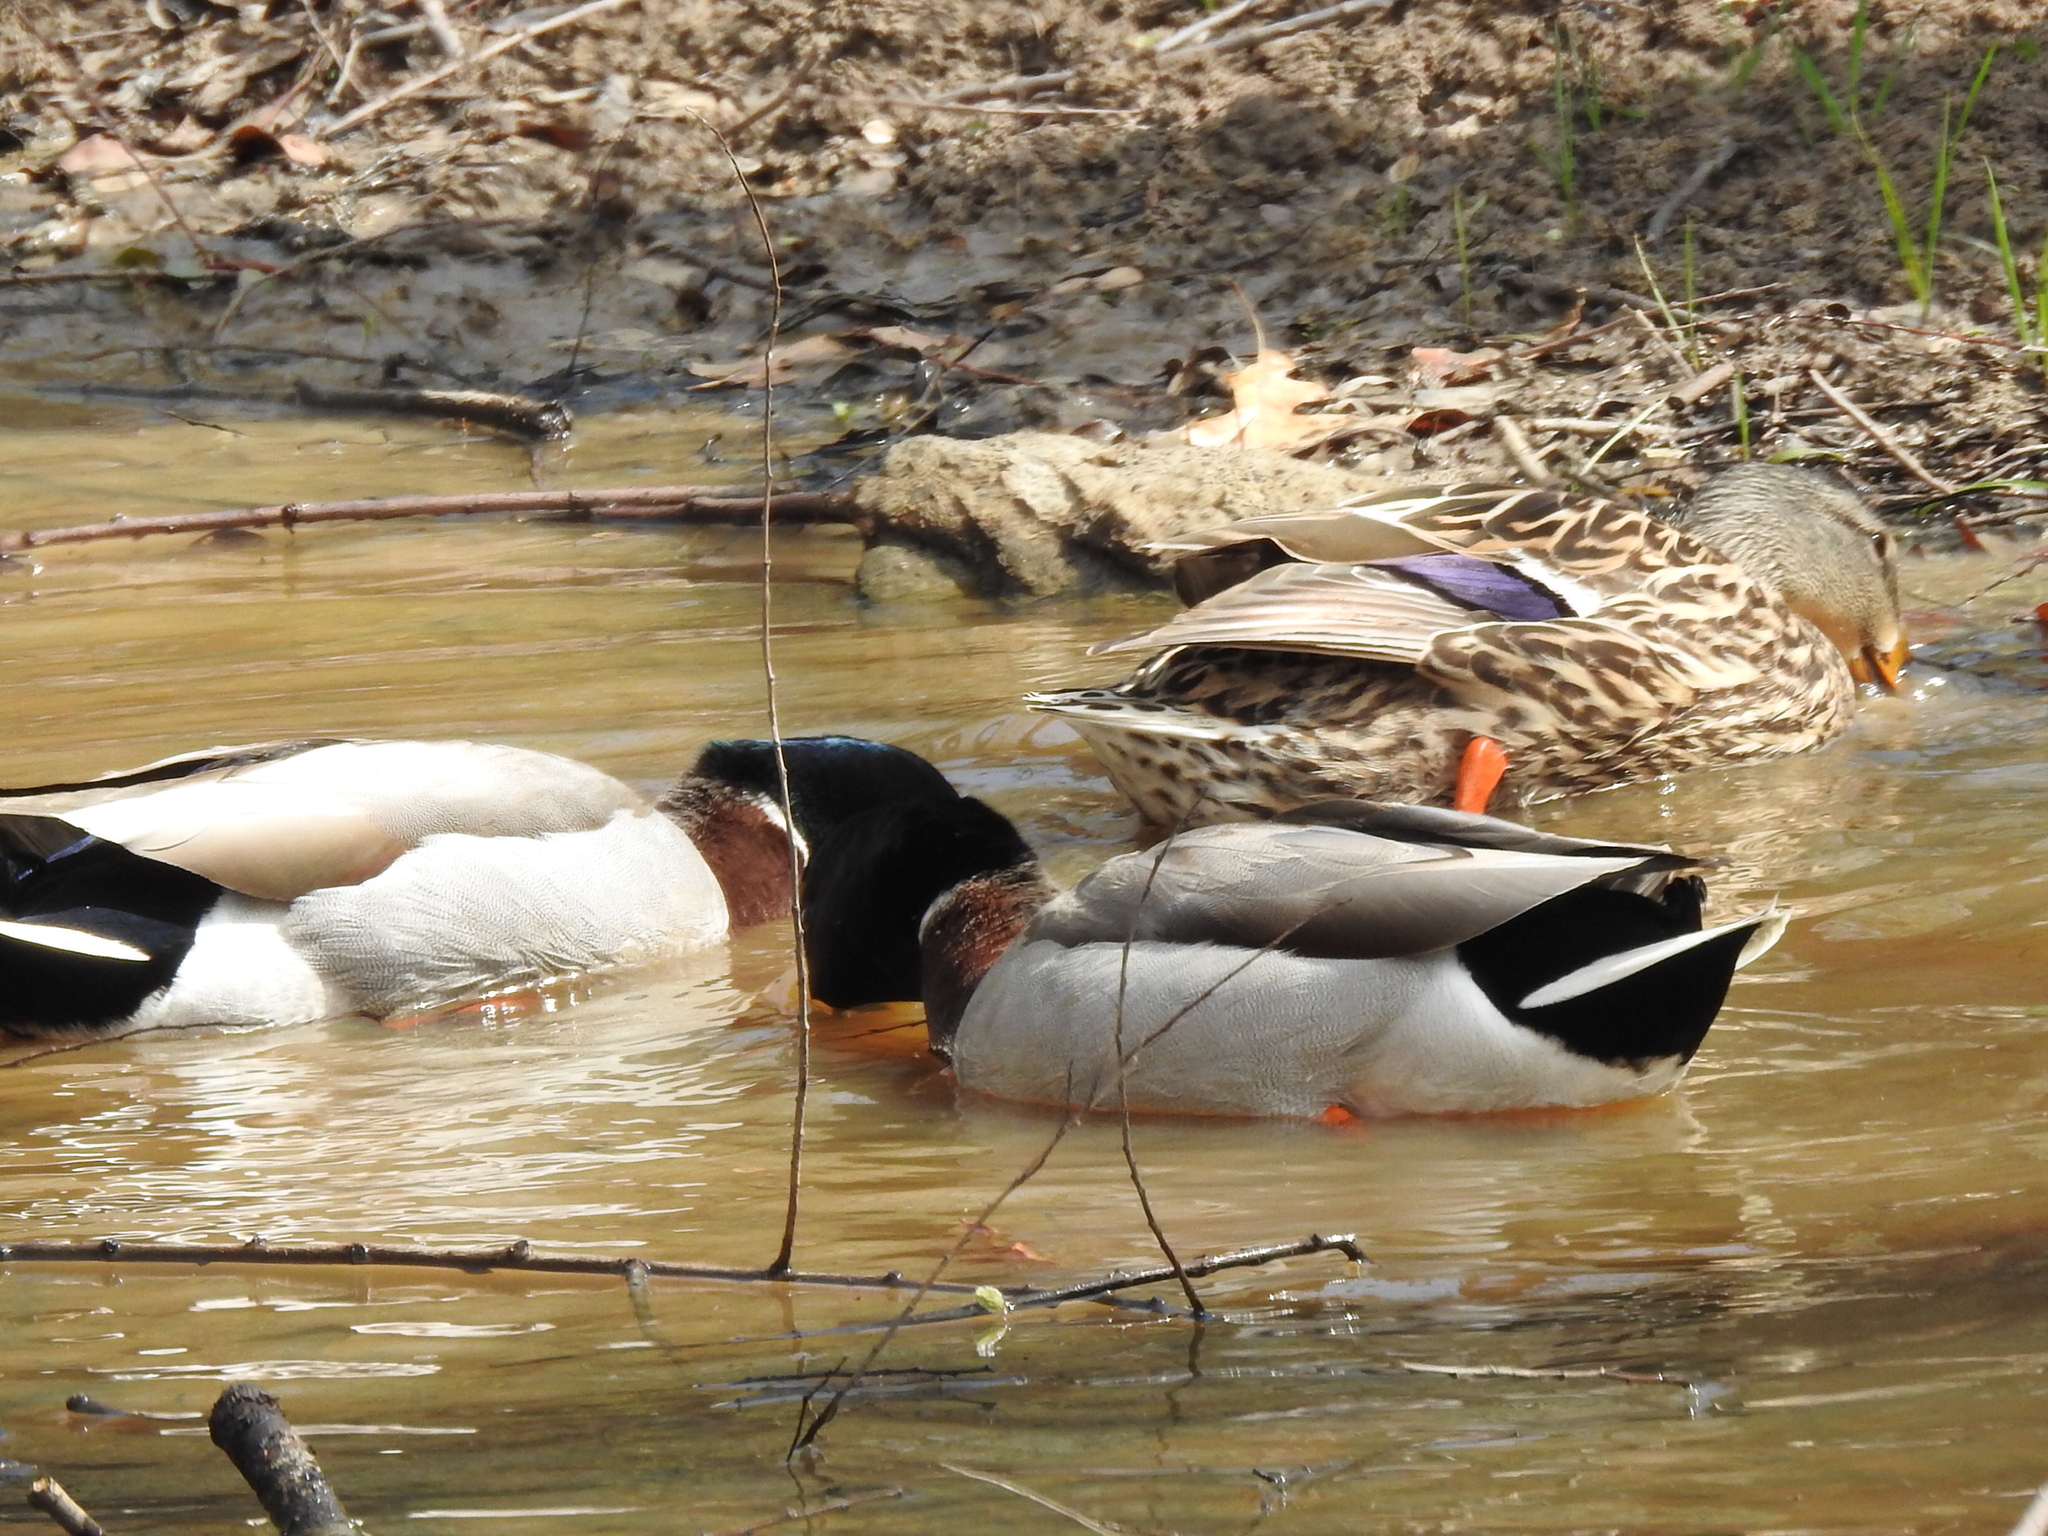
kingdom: Animalia
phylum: Chordata
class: Aves
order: Anseriformes
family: Anatidae
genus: Anas
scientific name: Anas platyrhynchos
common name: Mallard
